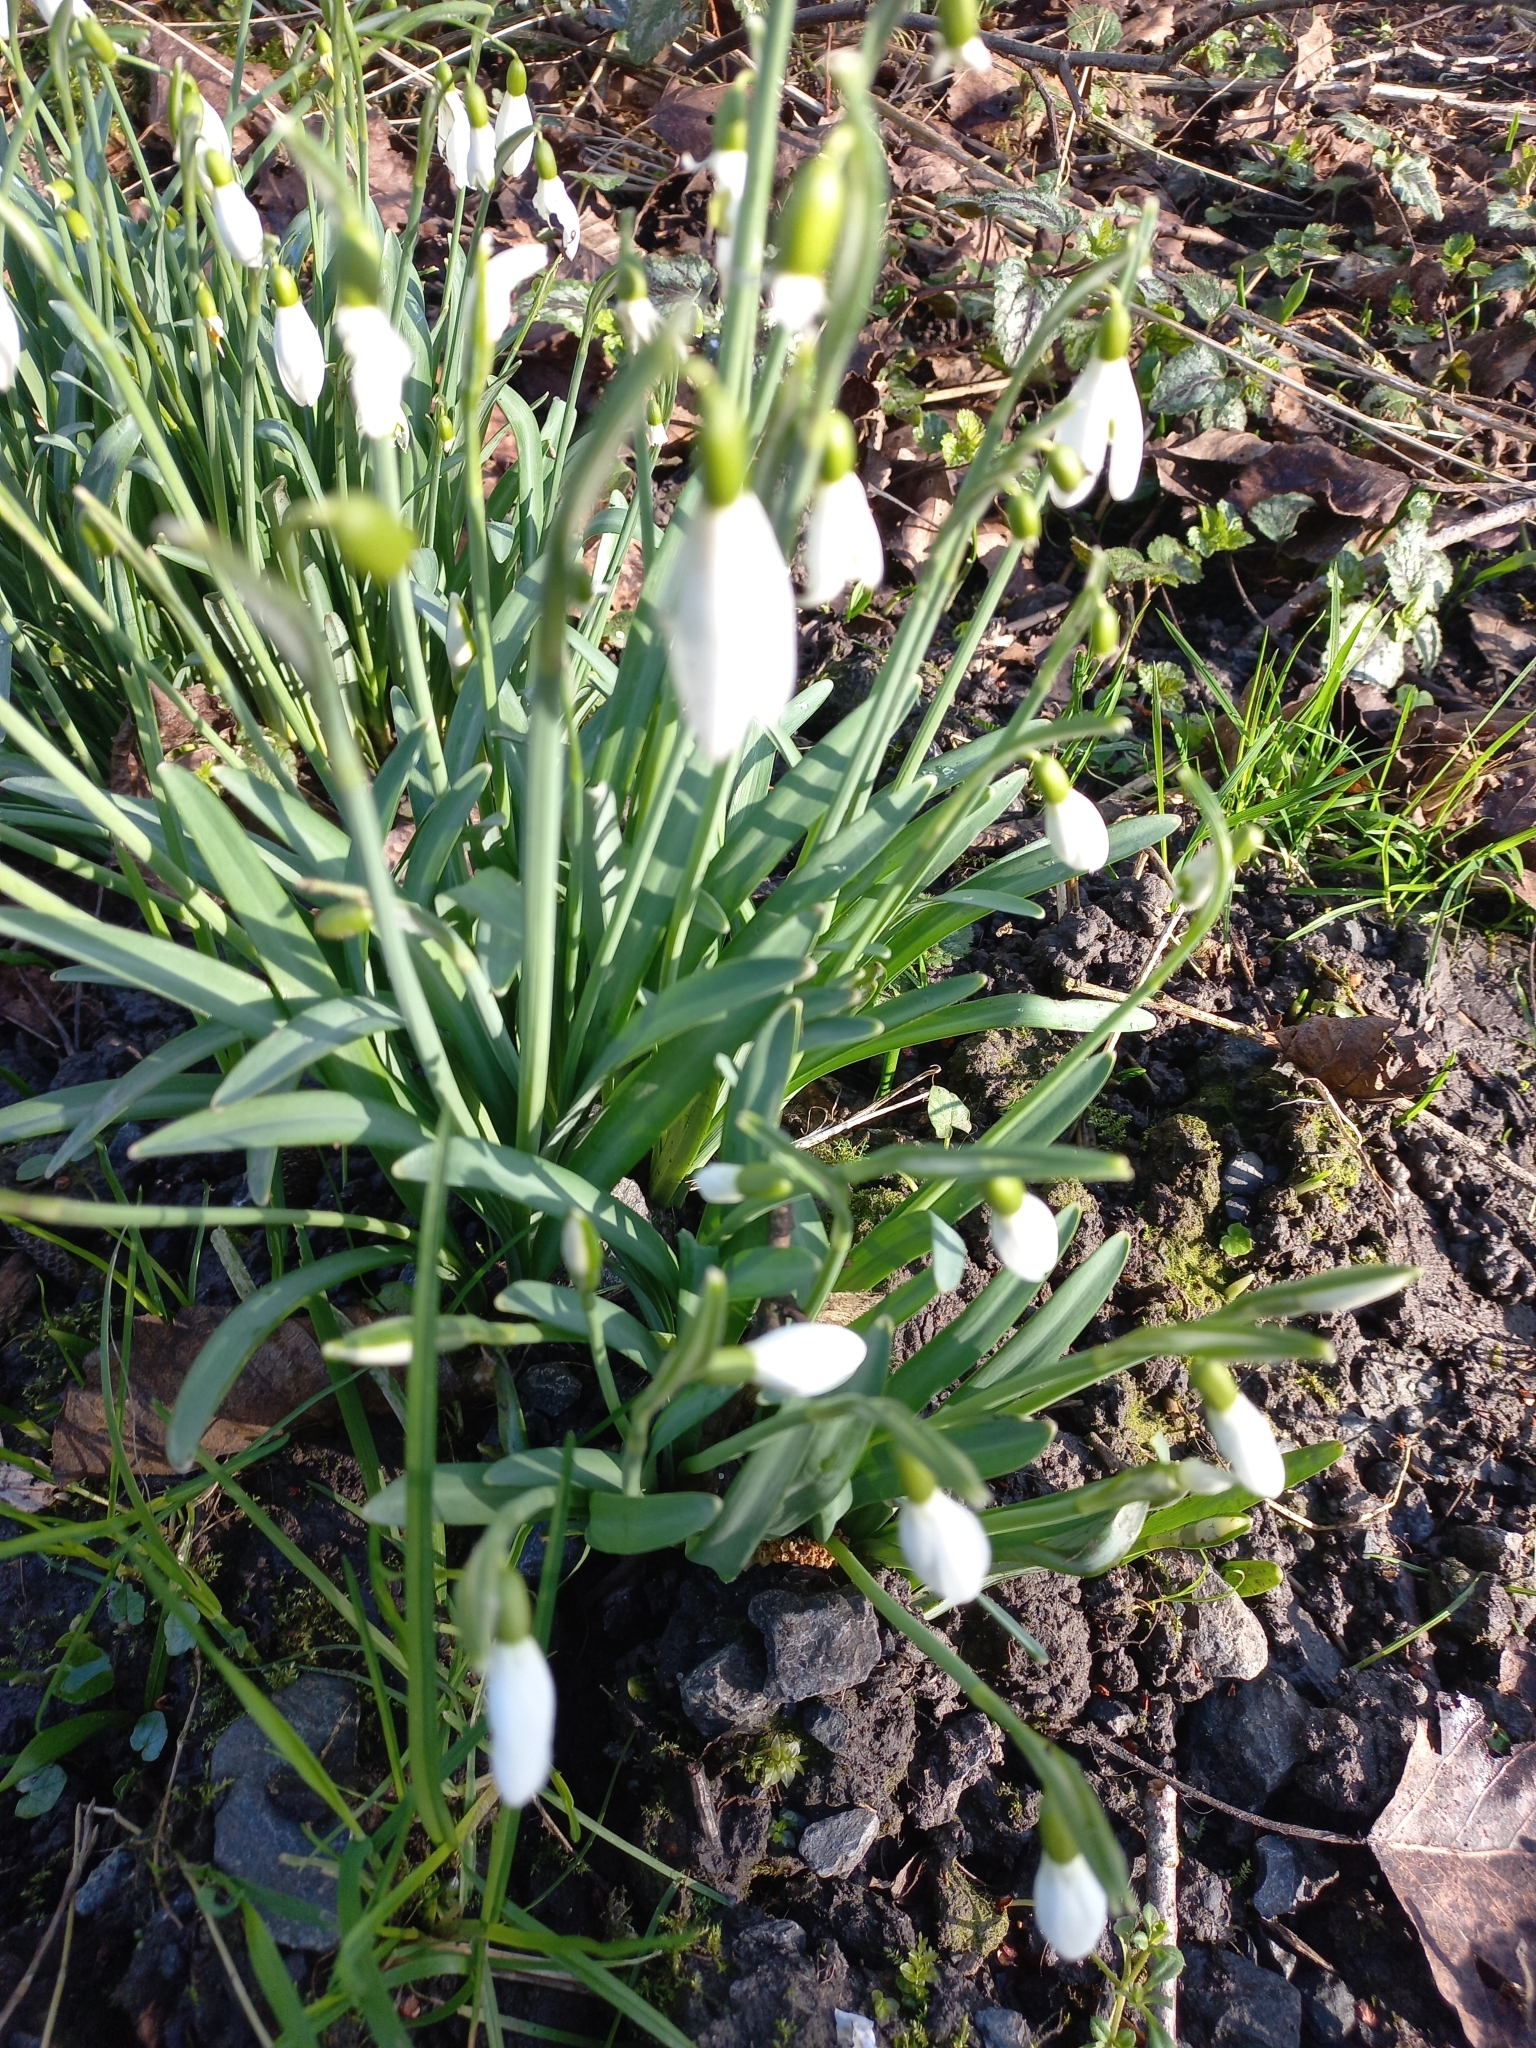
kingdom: Plantae
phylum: Tracheophyta
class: Liliopsida
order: Asparagales
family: Amaryllidaceae
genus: Galanthus
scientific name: Galanthus nivalis
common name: Snowdrop
